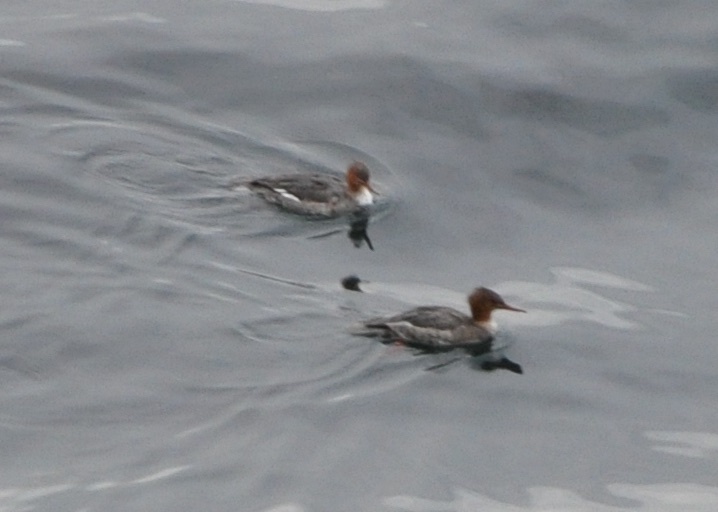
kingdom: Animalia
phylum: Chordata
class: Aves
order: Anseriformes
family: Anatidae
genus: Mergus
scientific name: Mergus serrator
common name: Red-breasted merganser
